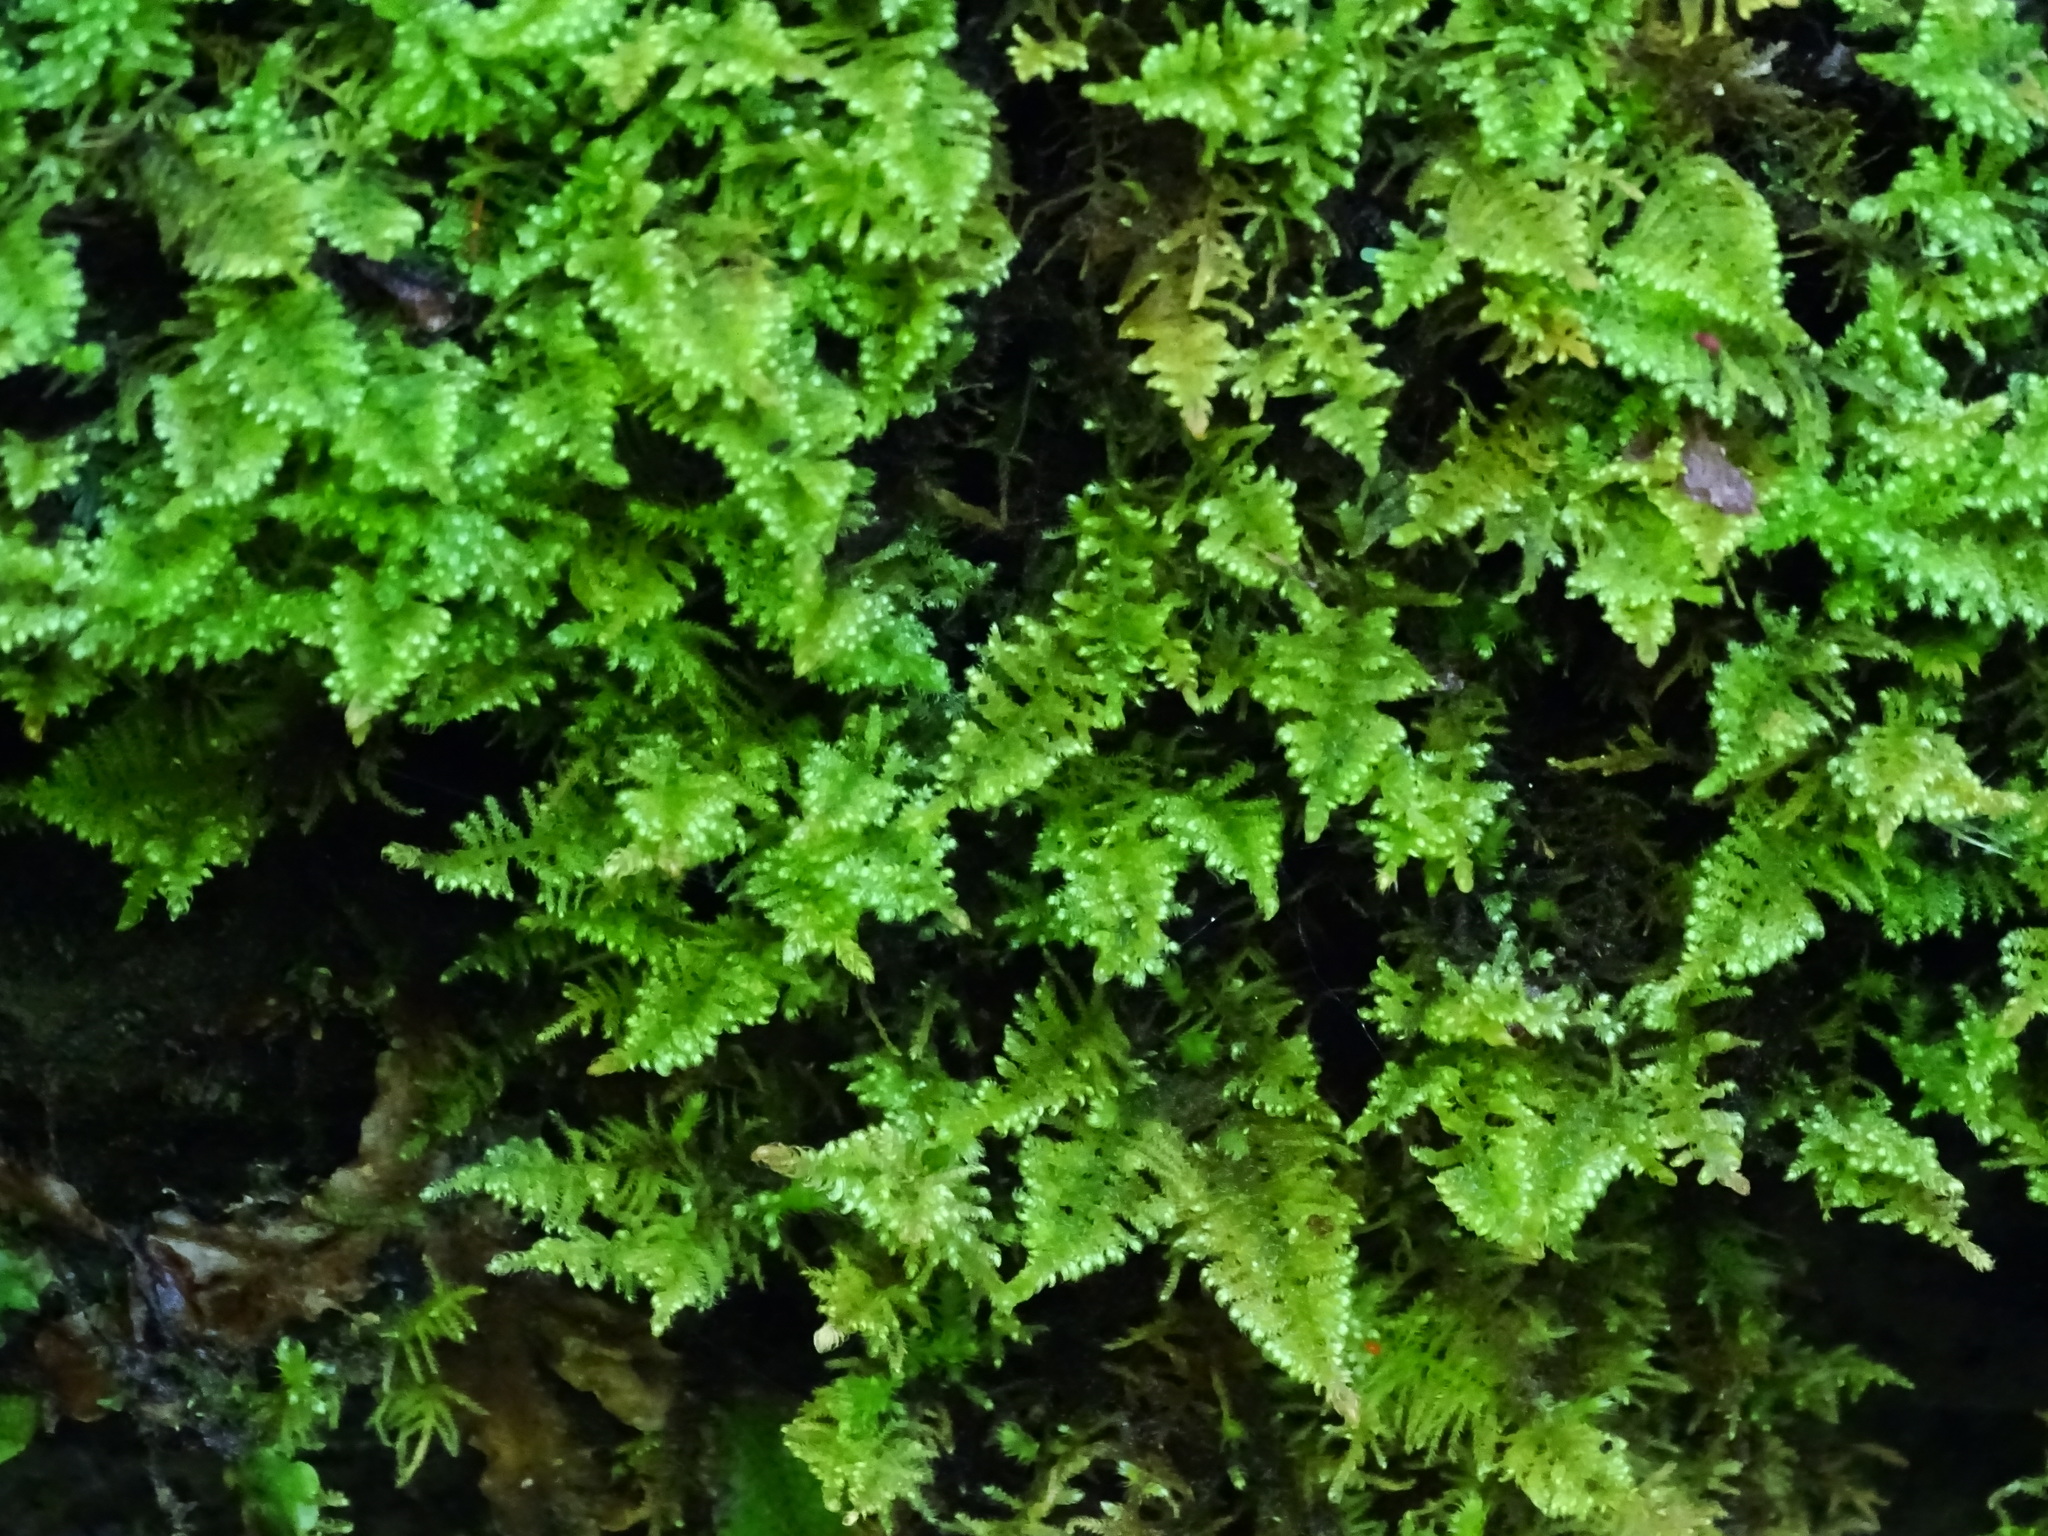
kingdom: Plantae
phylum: Bryophyta
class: Bryopsida
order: Hypnales
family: Myuriaceae
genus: Ctenidium
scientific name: Ctenidium molluscum
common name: Chalk comb-moss
